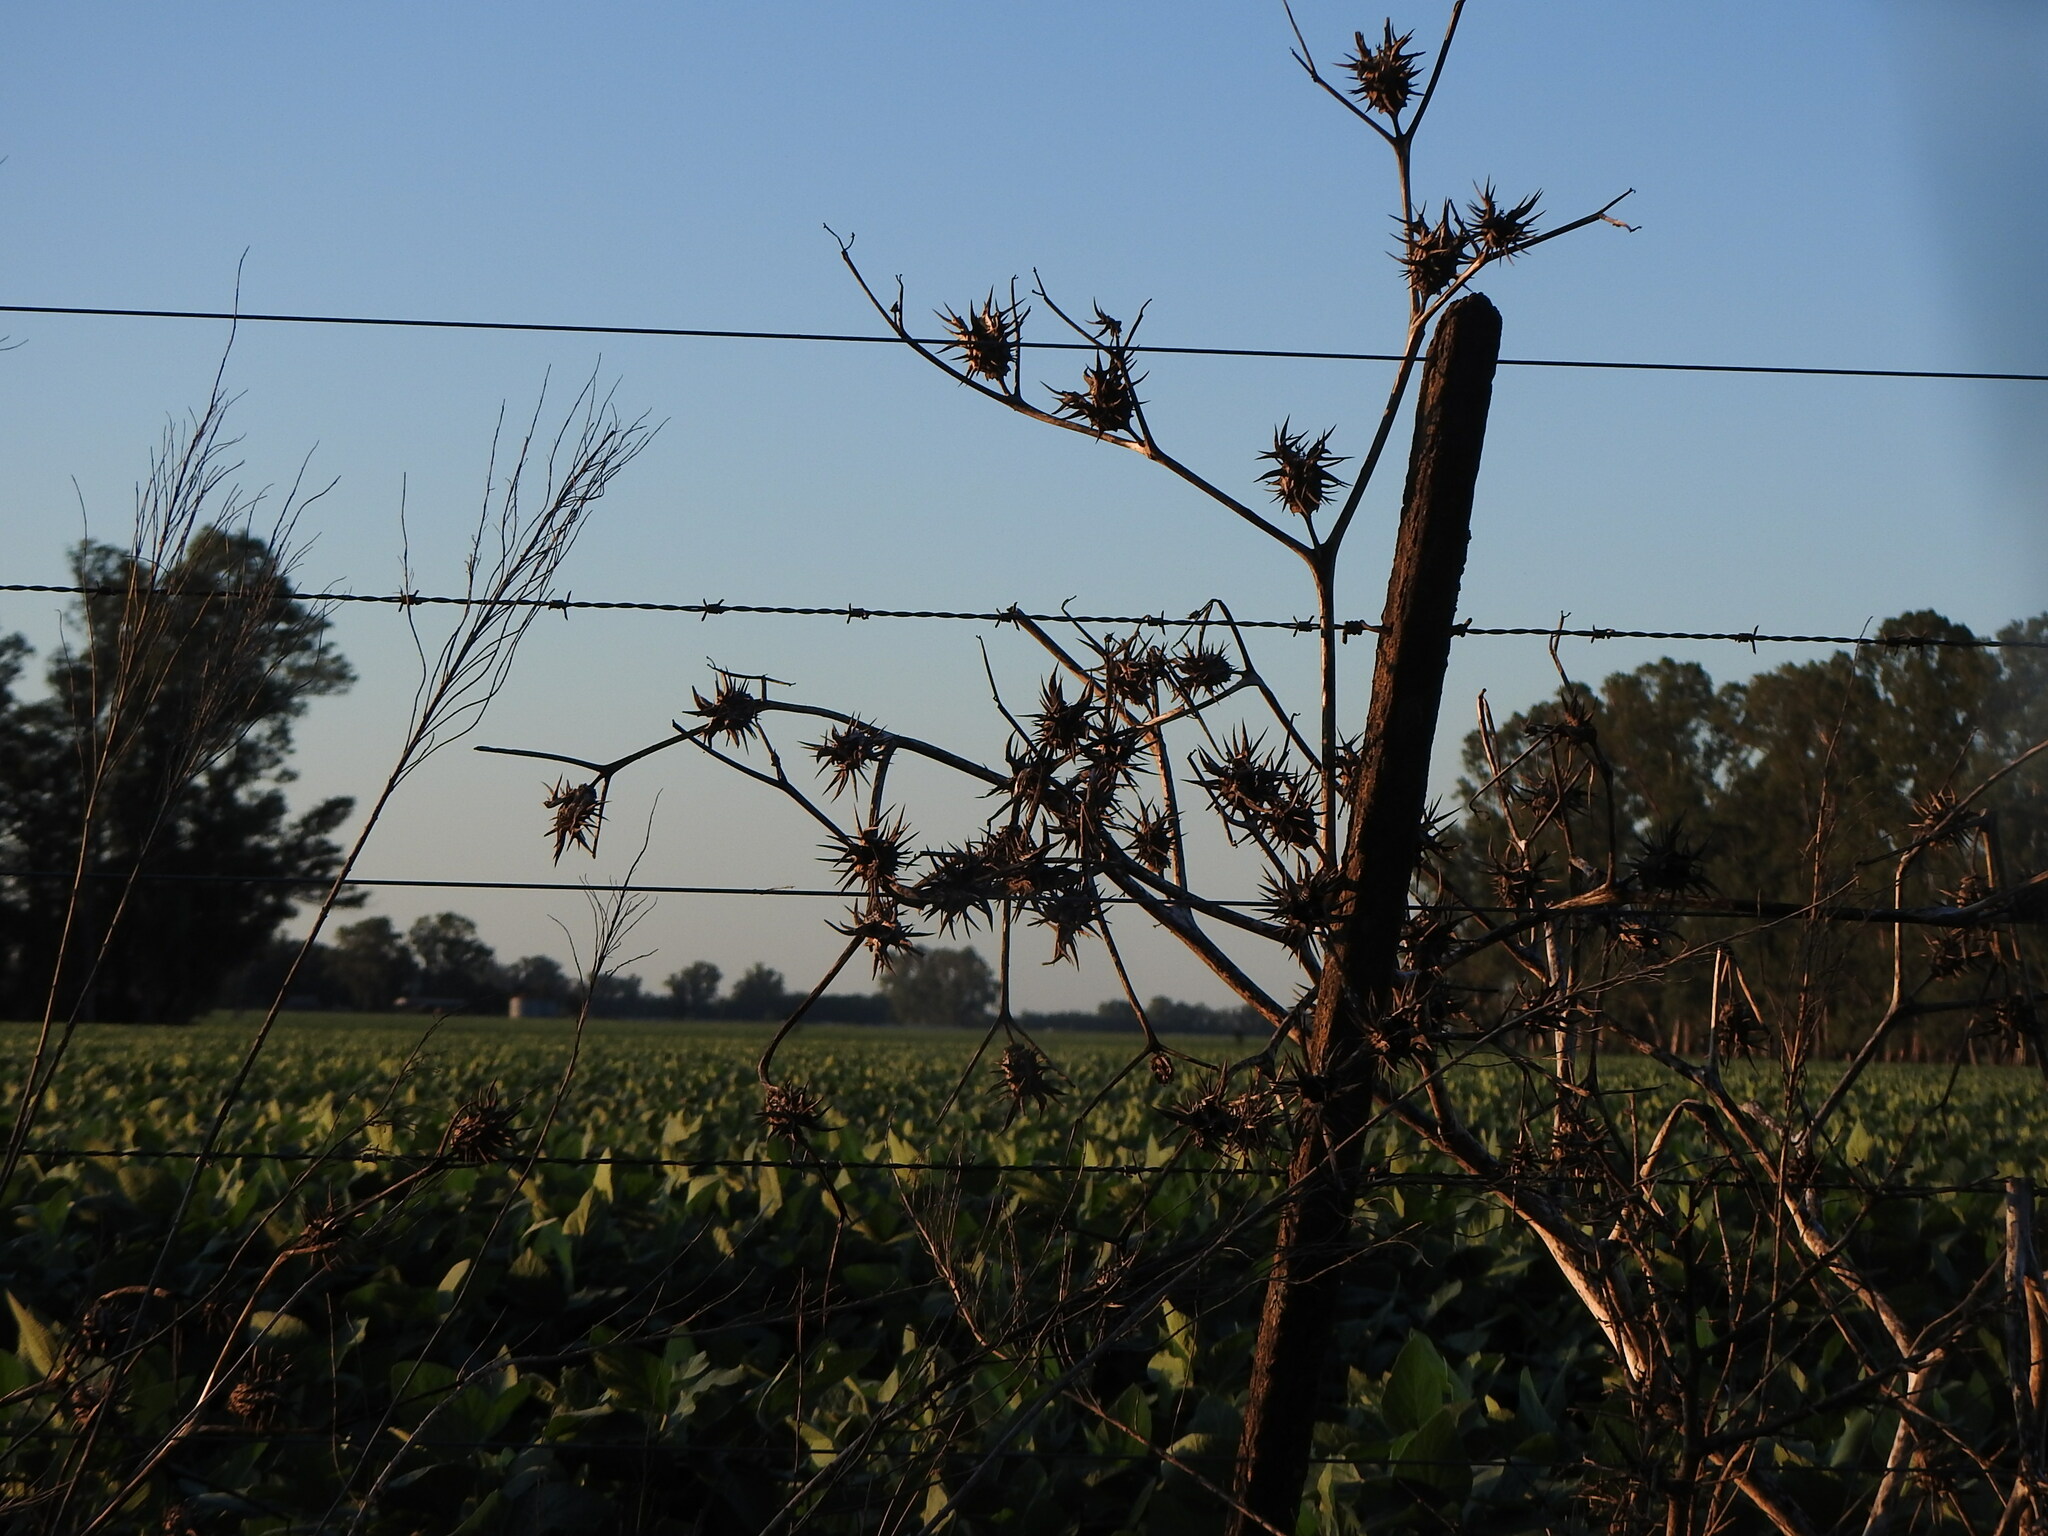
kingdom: Plantae
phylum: Tracheophyta
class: Magnoliopsida
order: Solanales
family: Solanaceae
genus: Datura
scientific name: Datura ferox
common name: Angel's-trumpets
